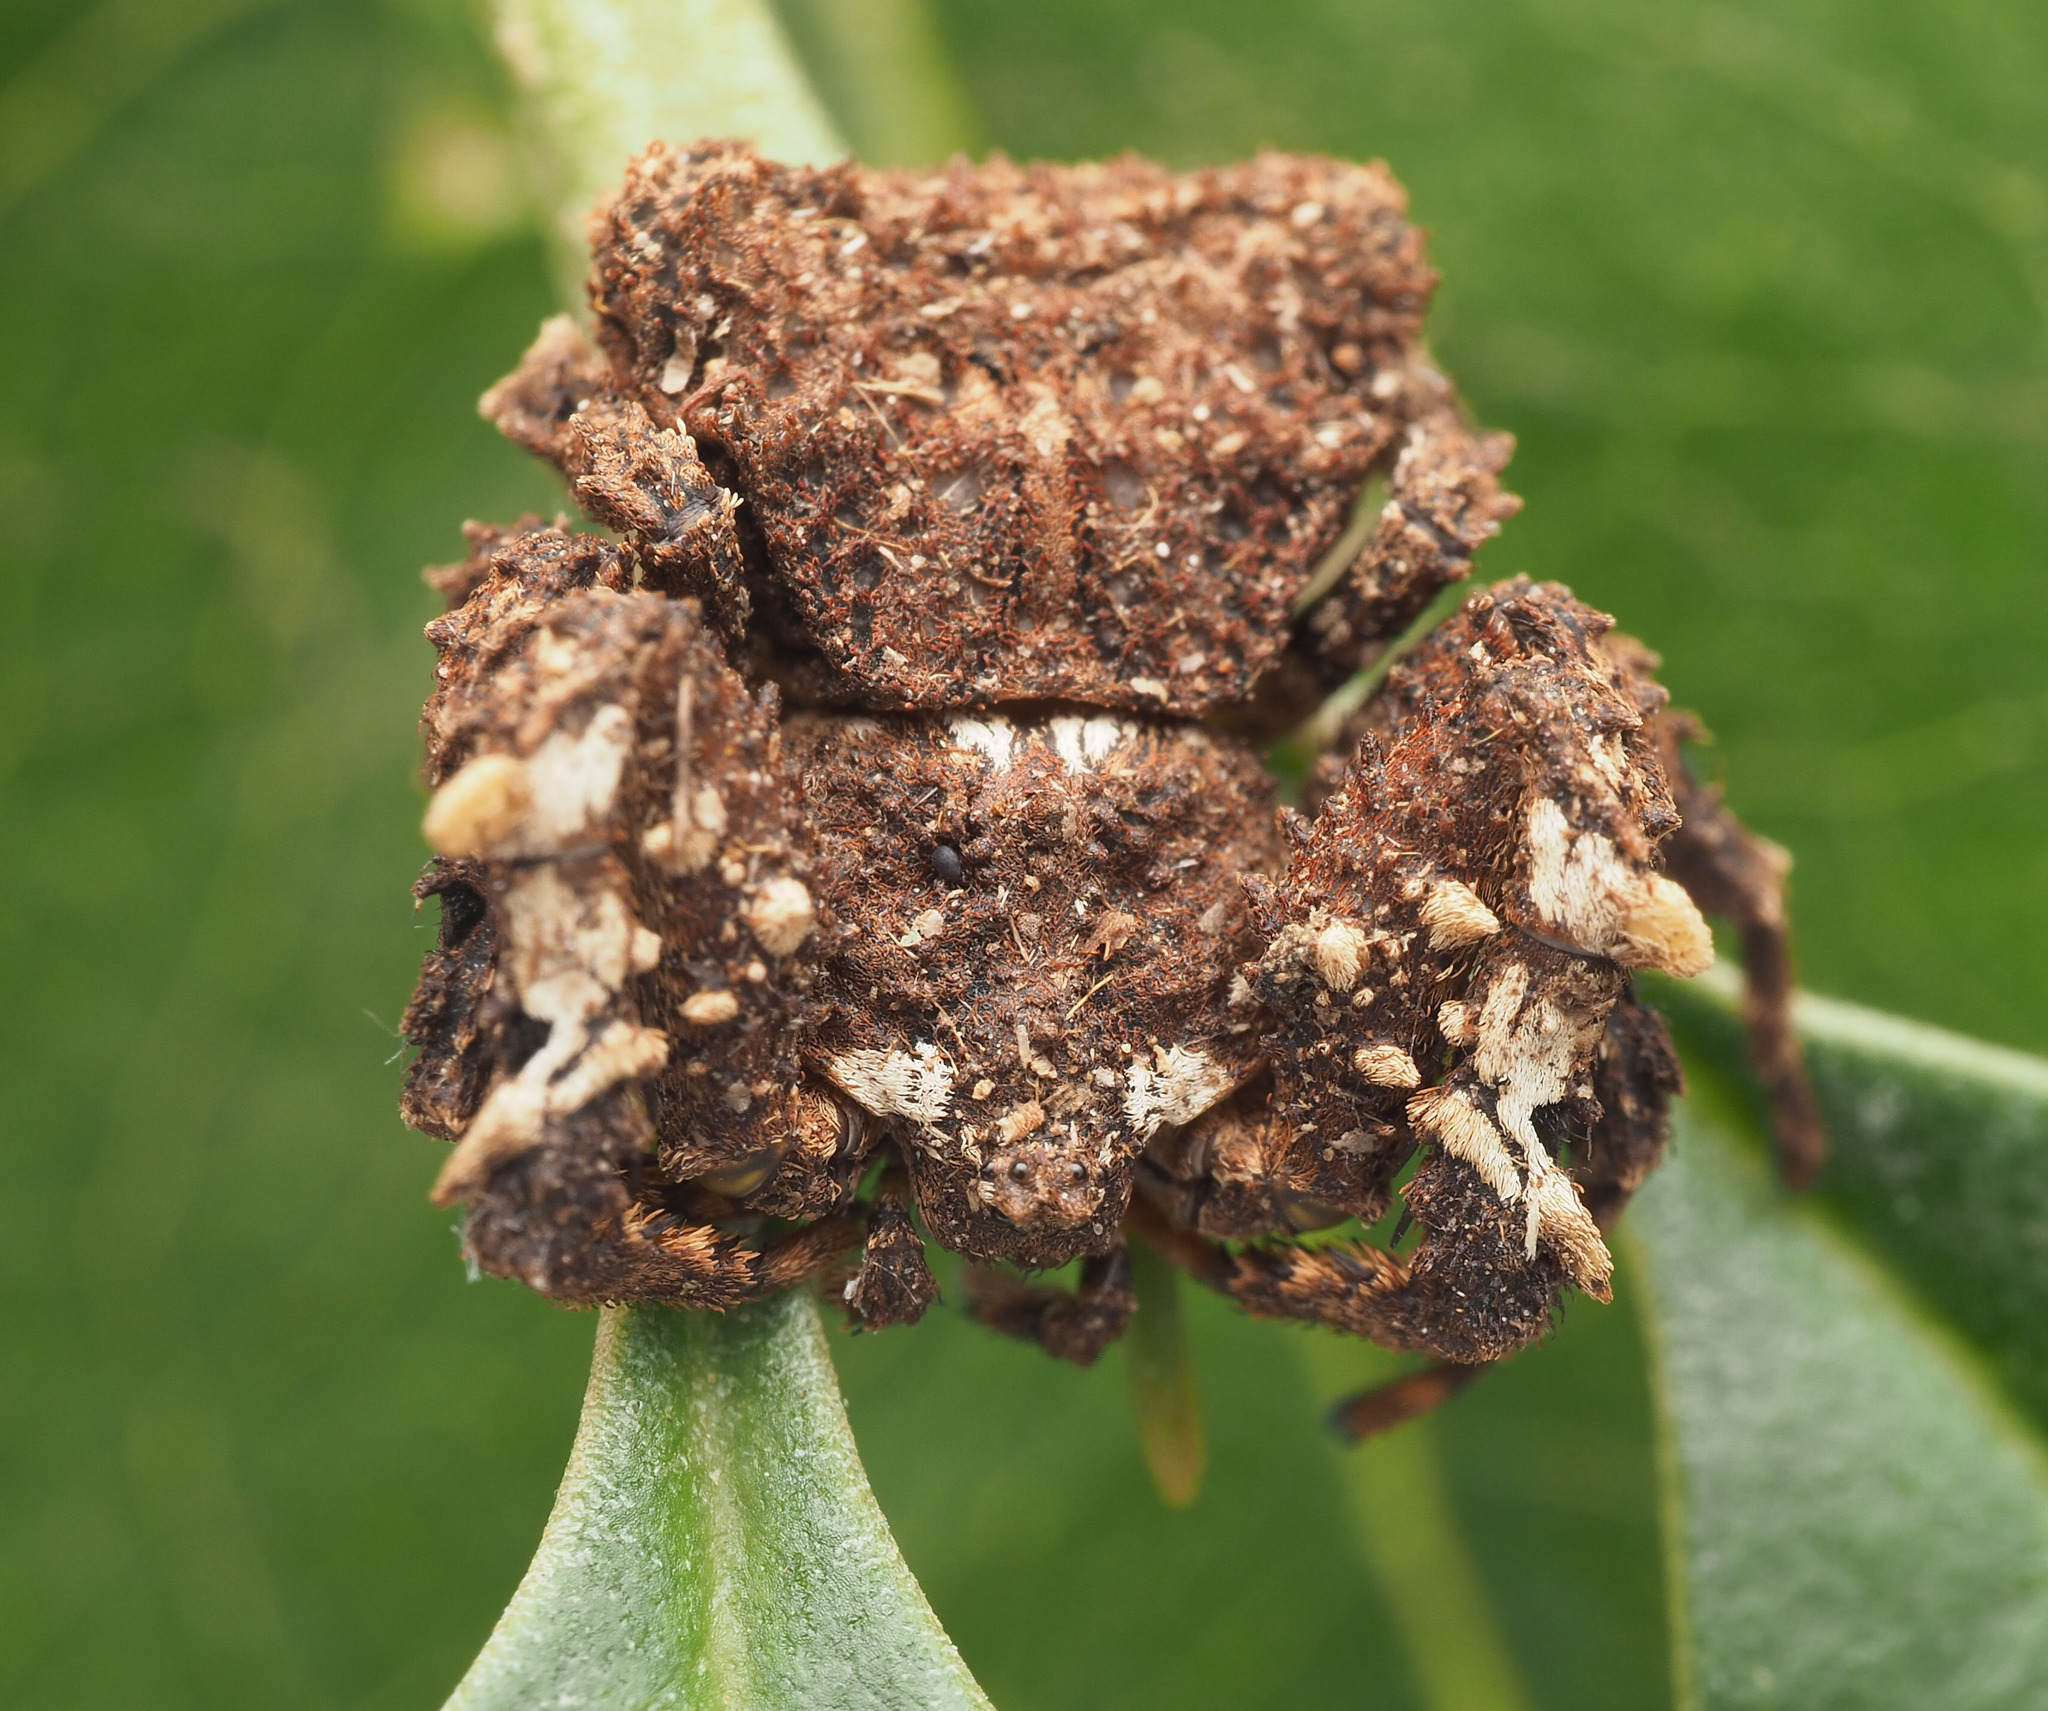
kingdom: Animalia
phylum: Arthropoda
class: Arachnida
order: Araneae
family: Thomisidae
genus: Stephanopis
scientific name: Stephanopis
